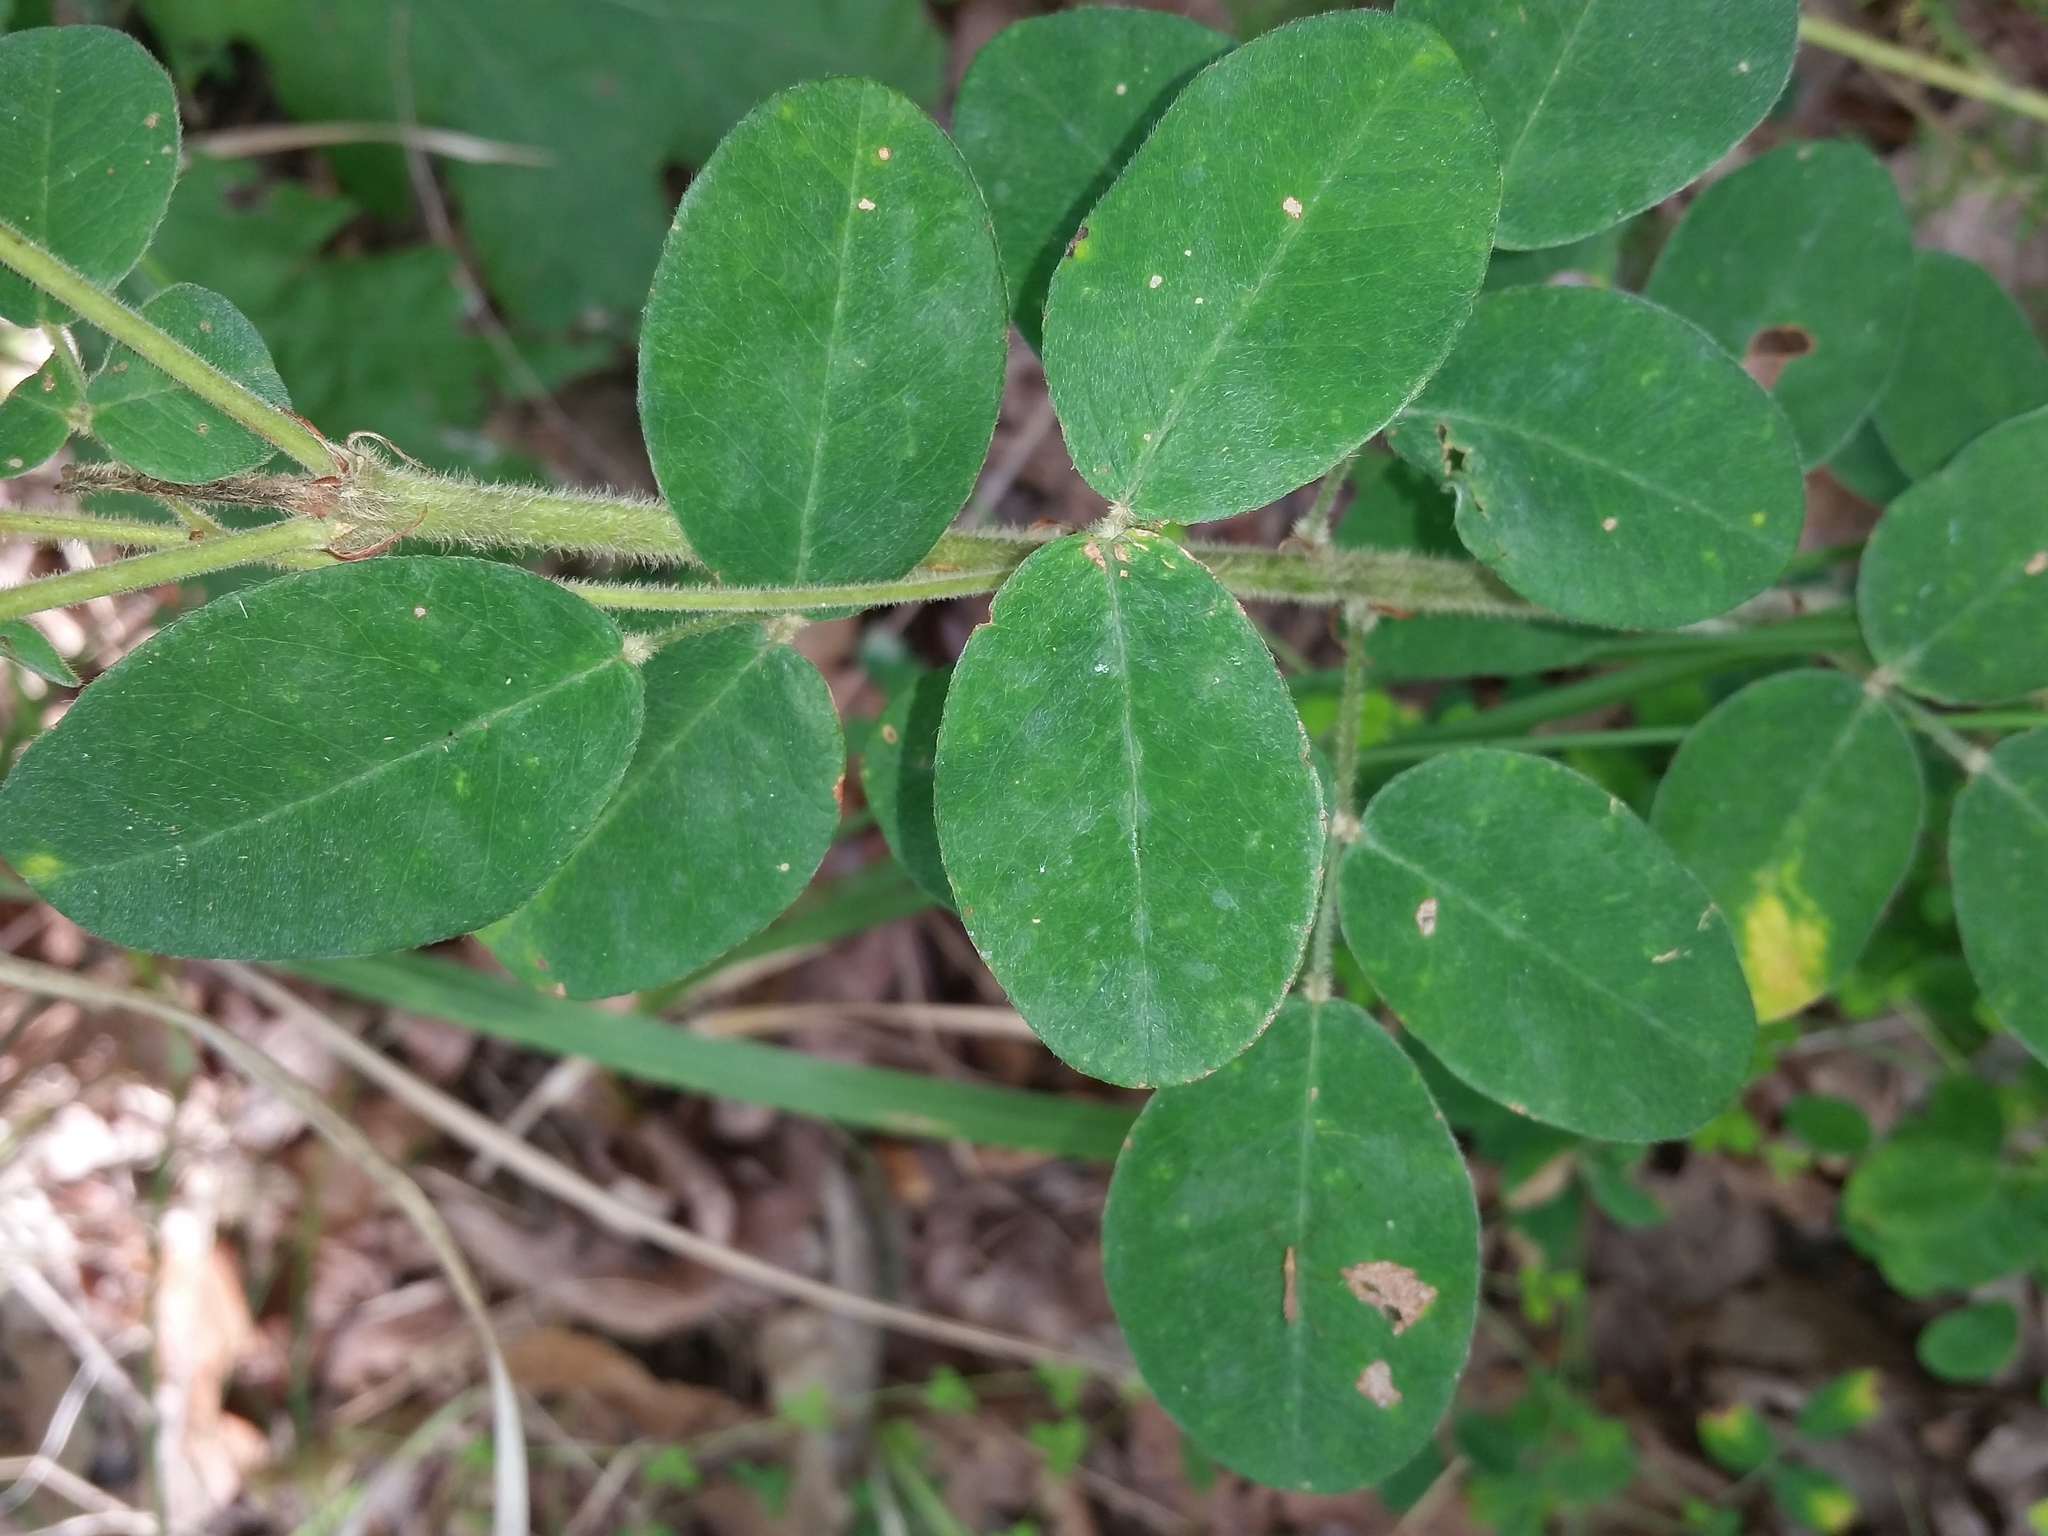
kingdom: Plantae
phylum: Tracheophyta
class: Magnoliopsida
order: Fabales
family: Fabaceae
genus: Lespedeza
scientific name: Lespedeza hirta
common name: Hairy lespedeza
